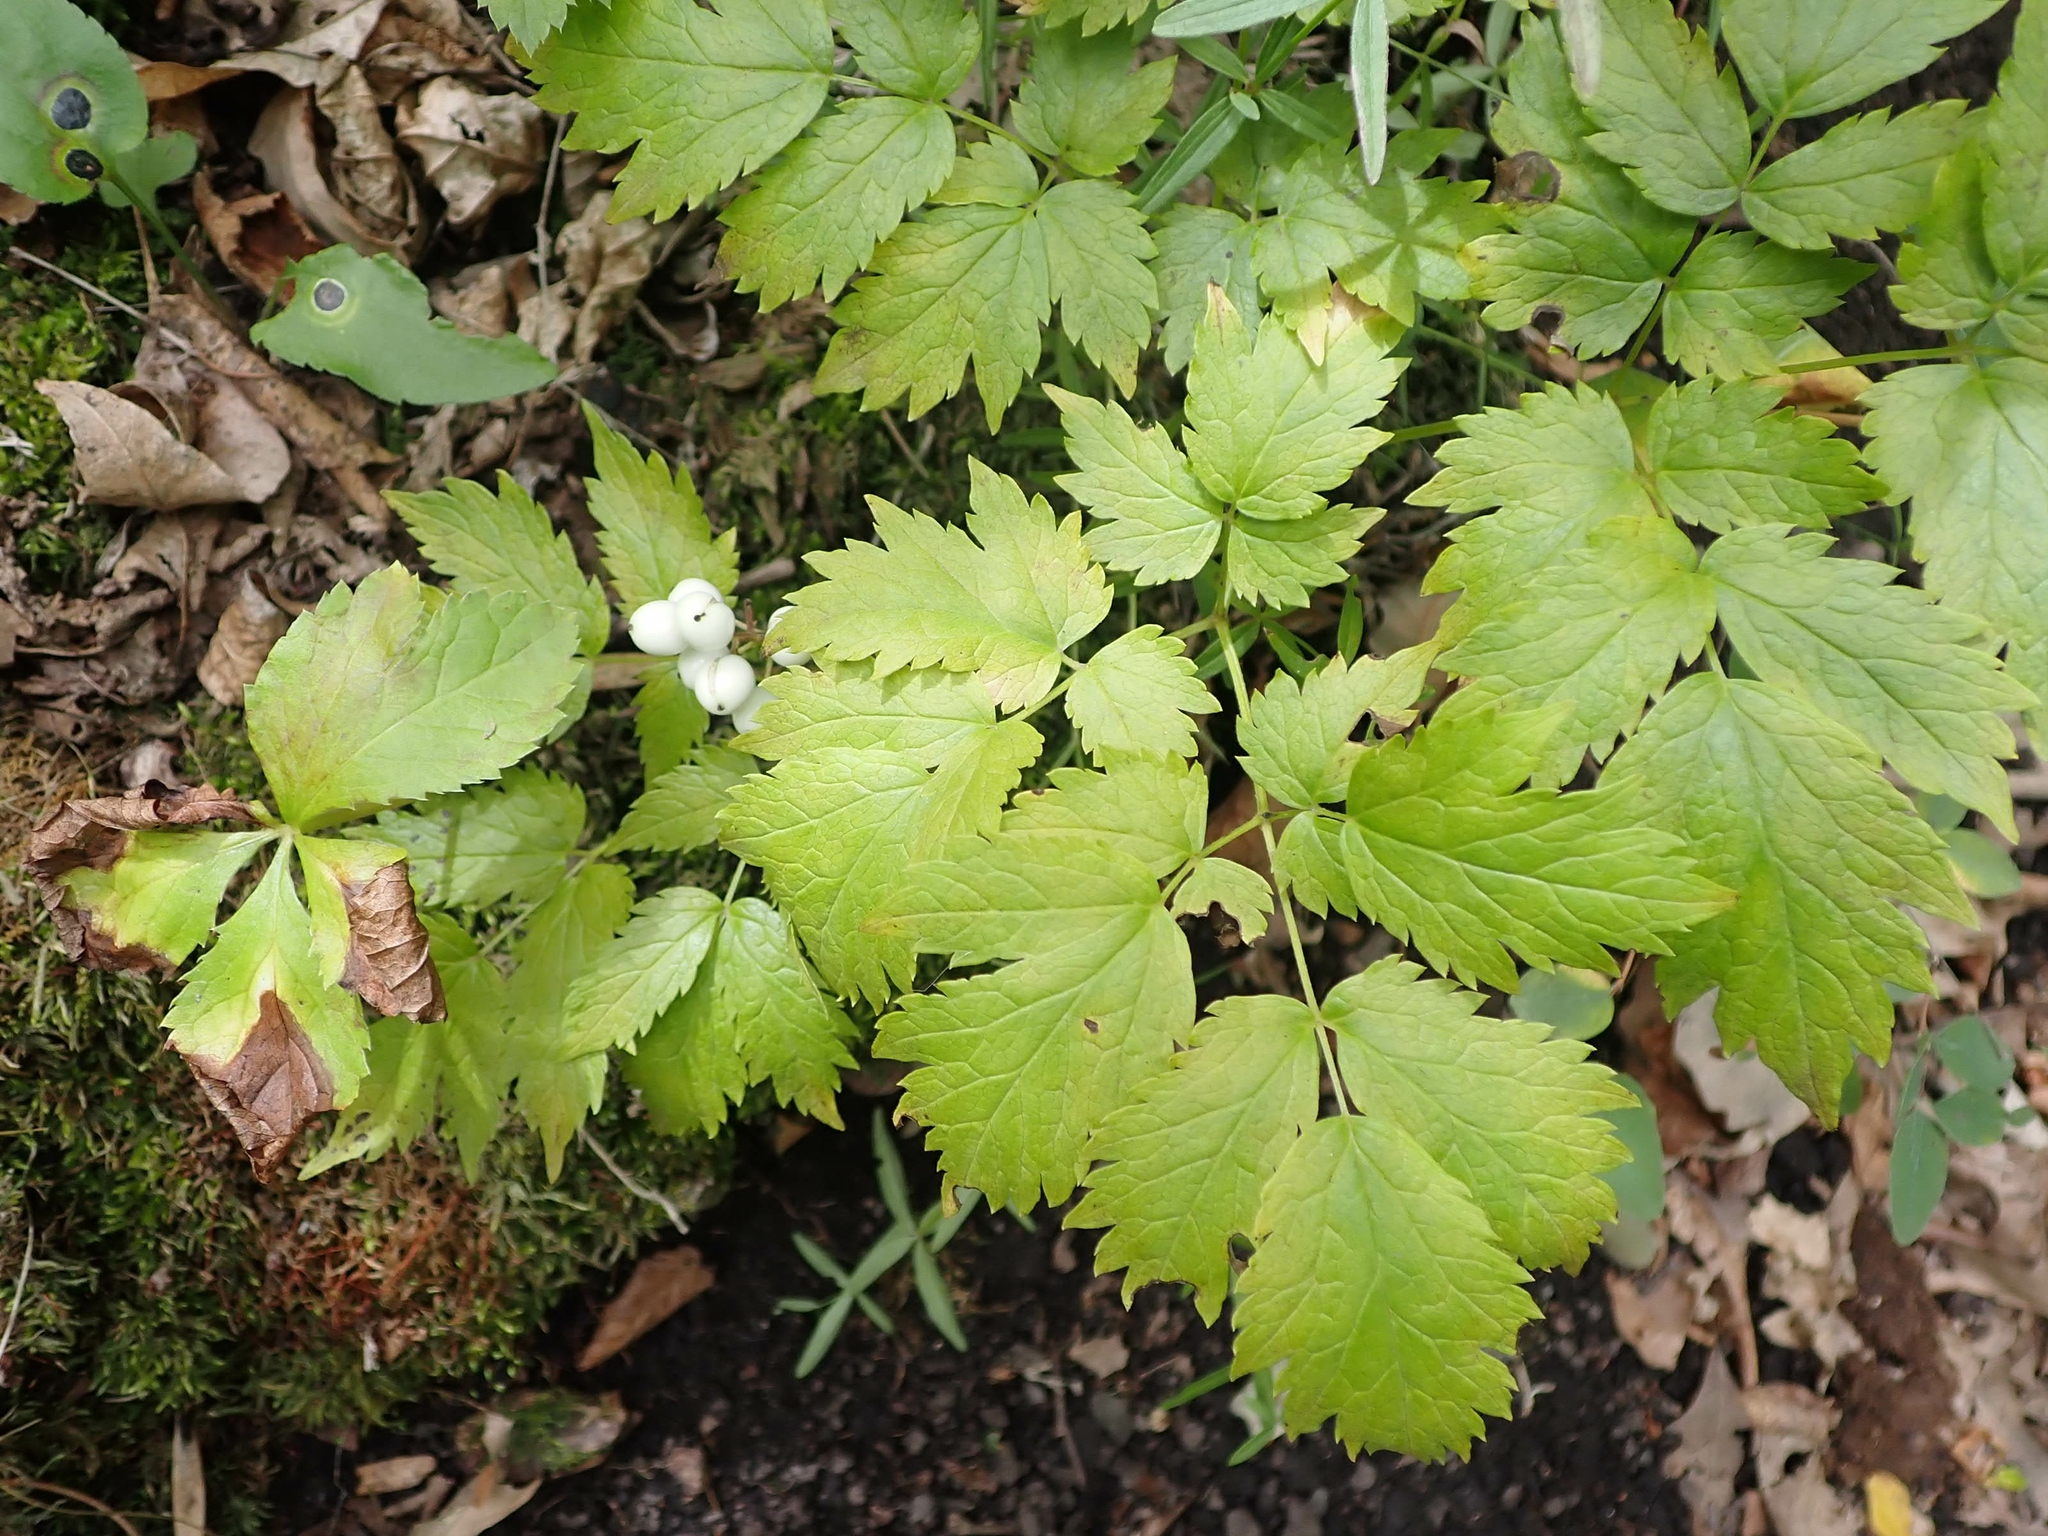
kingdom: Plantae
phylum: Tracheophyta
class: Magnoliopsida
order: Ranunculales
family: Ranunculaceae
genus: Actaea
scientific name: Actaea rubra
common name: Red baneberry
